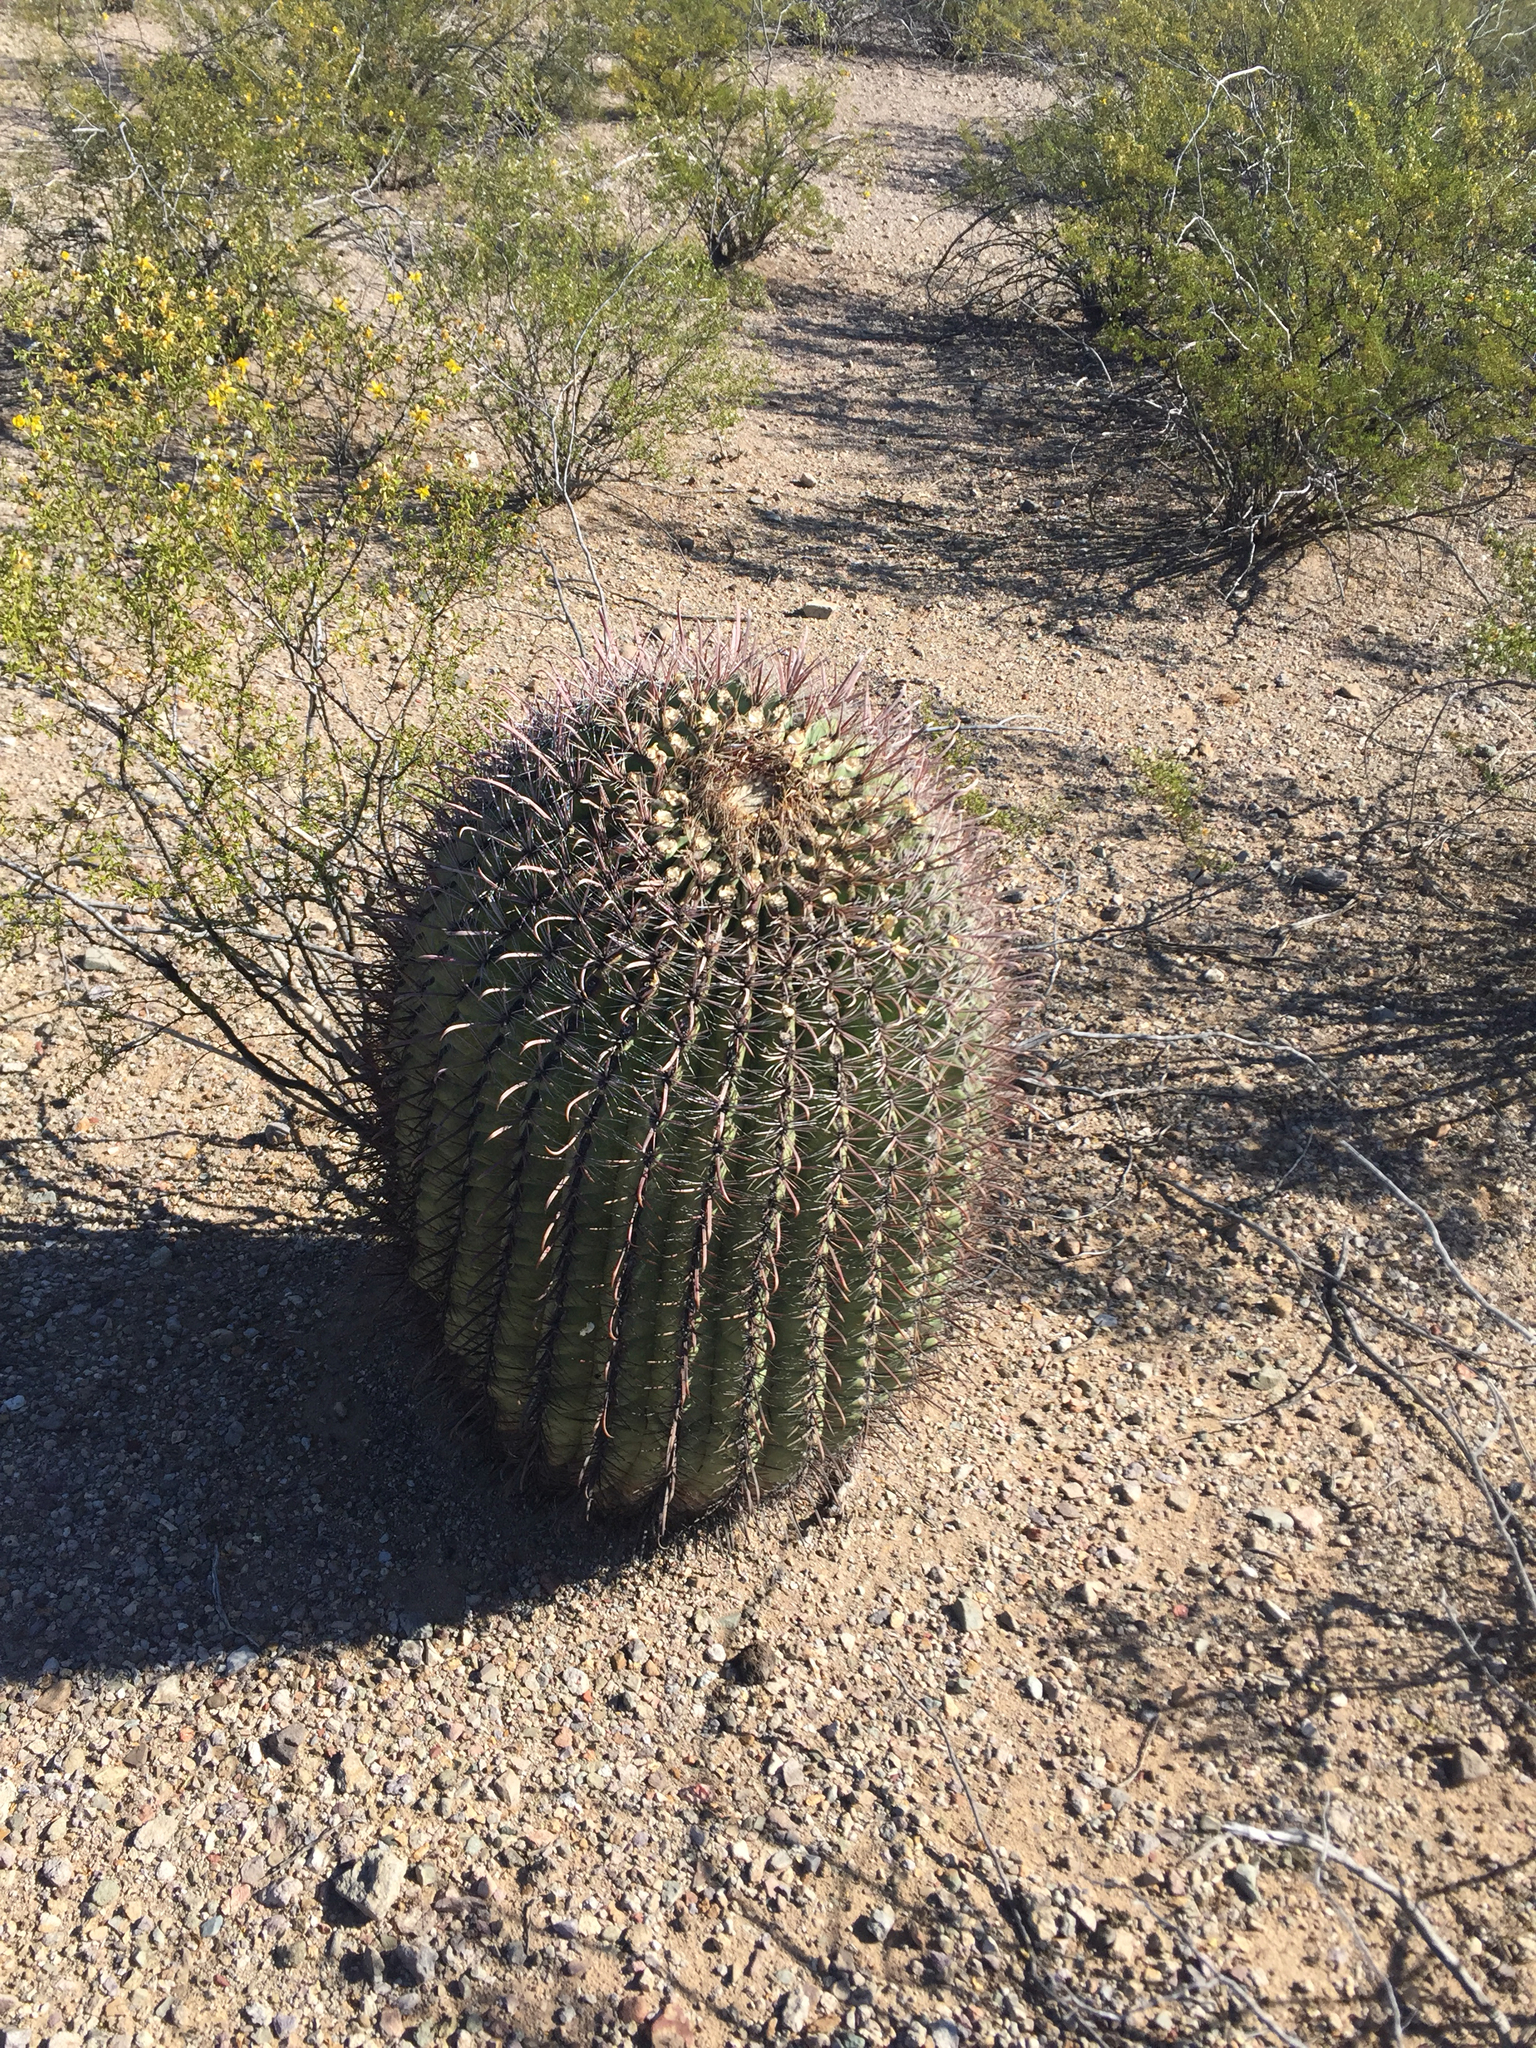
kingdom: Plantae
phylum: Tracheophyta
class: Magnoliopsida
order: Caryophyllales
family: Cactaceae
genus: Ferocactus
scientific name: Ferocactus wislizeni
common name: Candy barrel cactus
